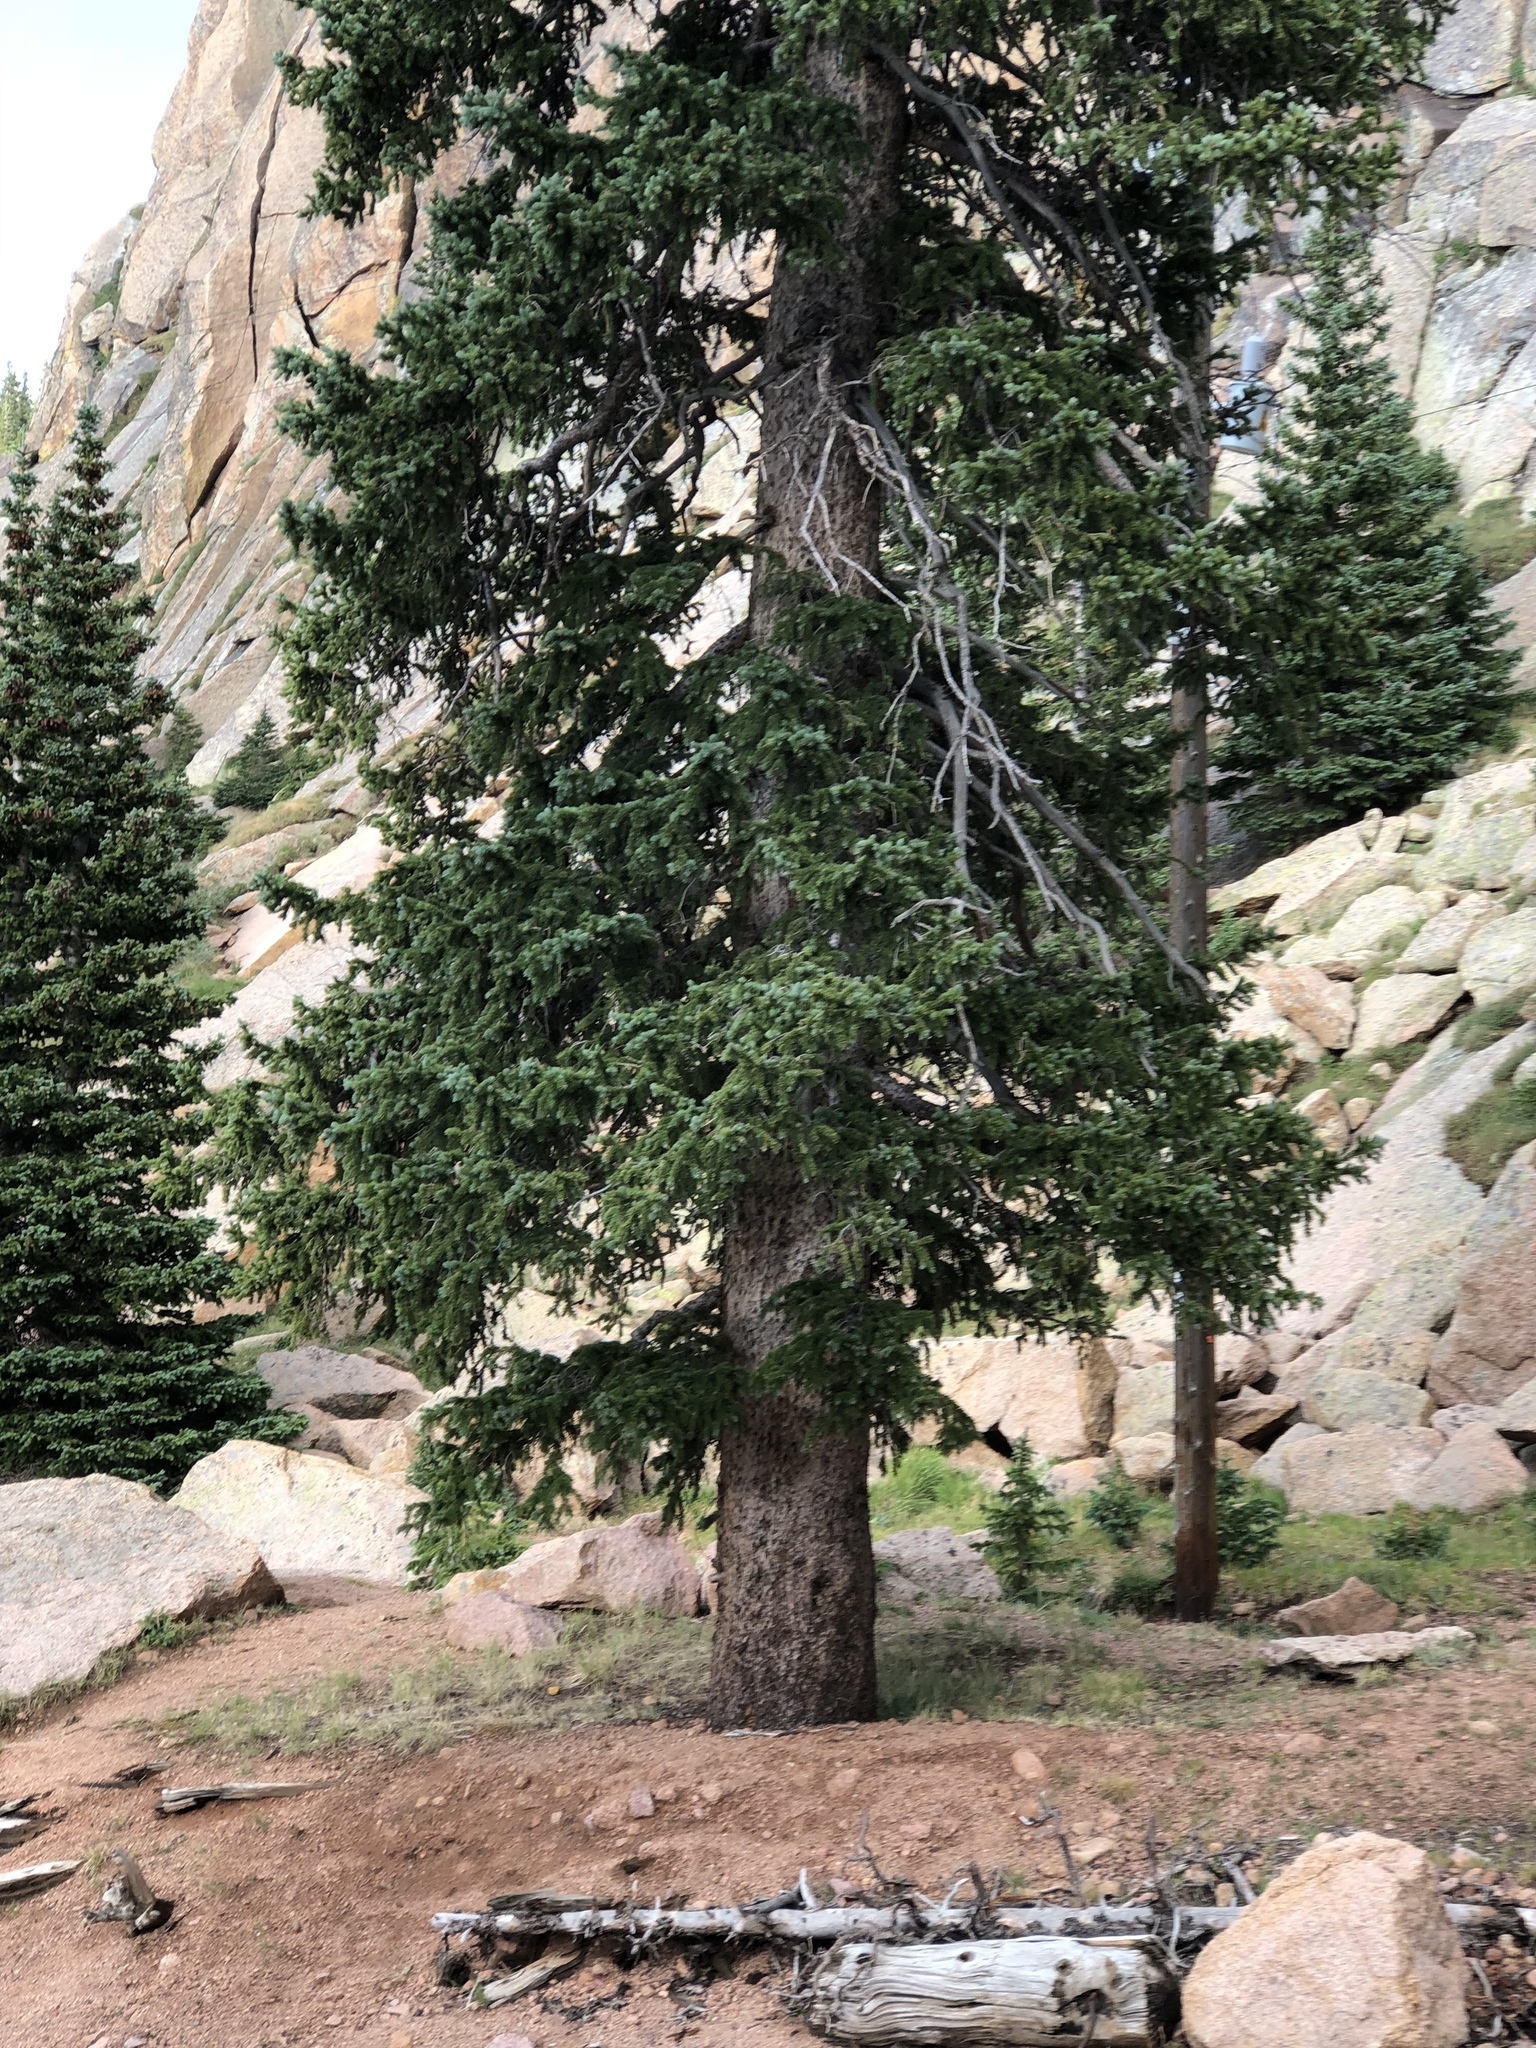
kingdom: Plantae
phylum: Tracheophyta
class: Pinopsida
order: Pinales
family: Pinaceae
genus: Picea
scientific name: Picea engelmannii
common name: Engelmann spruce
